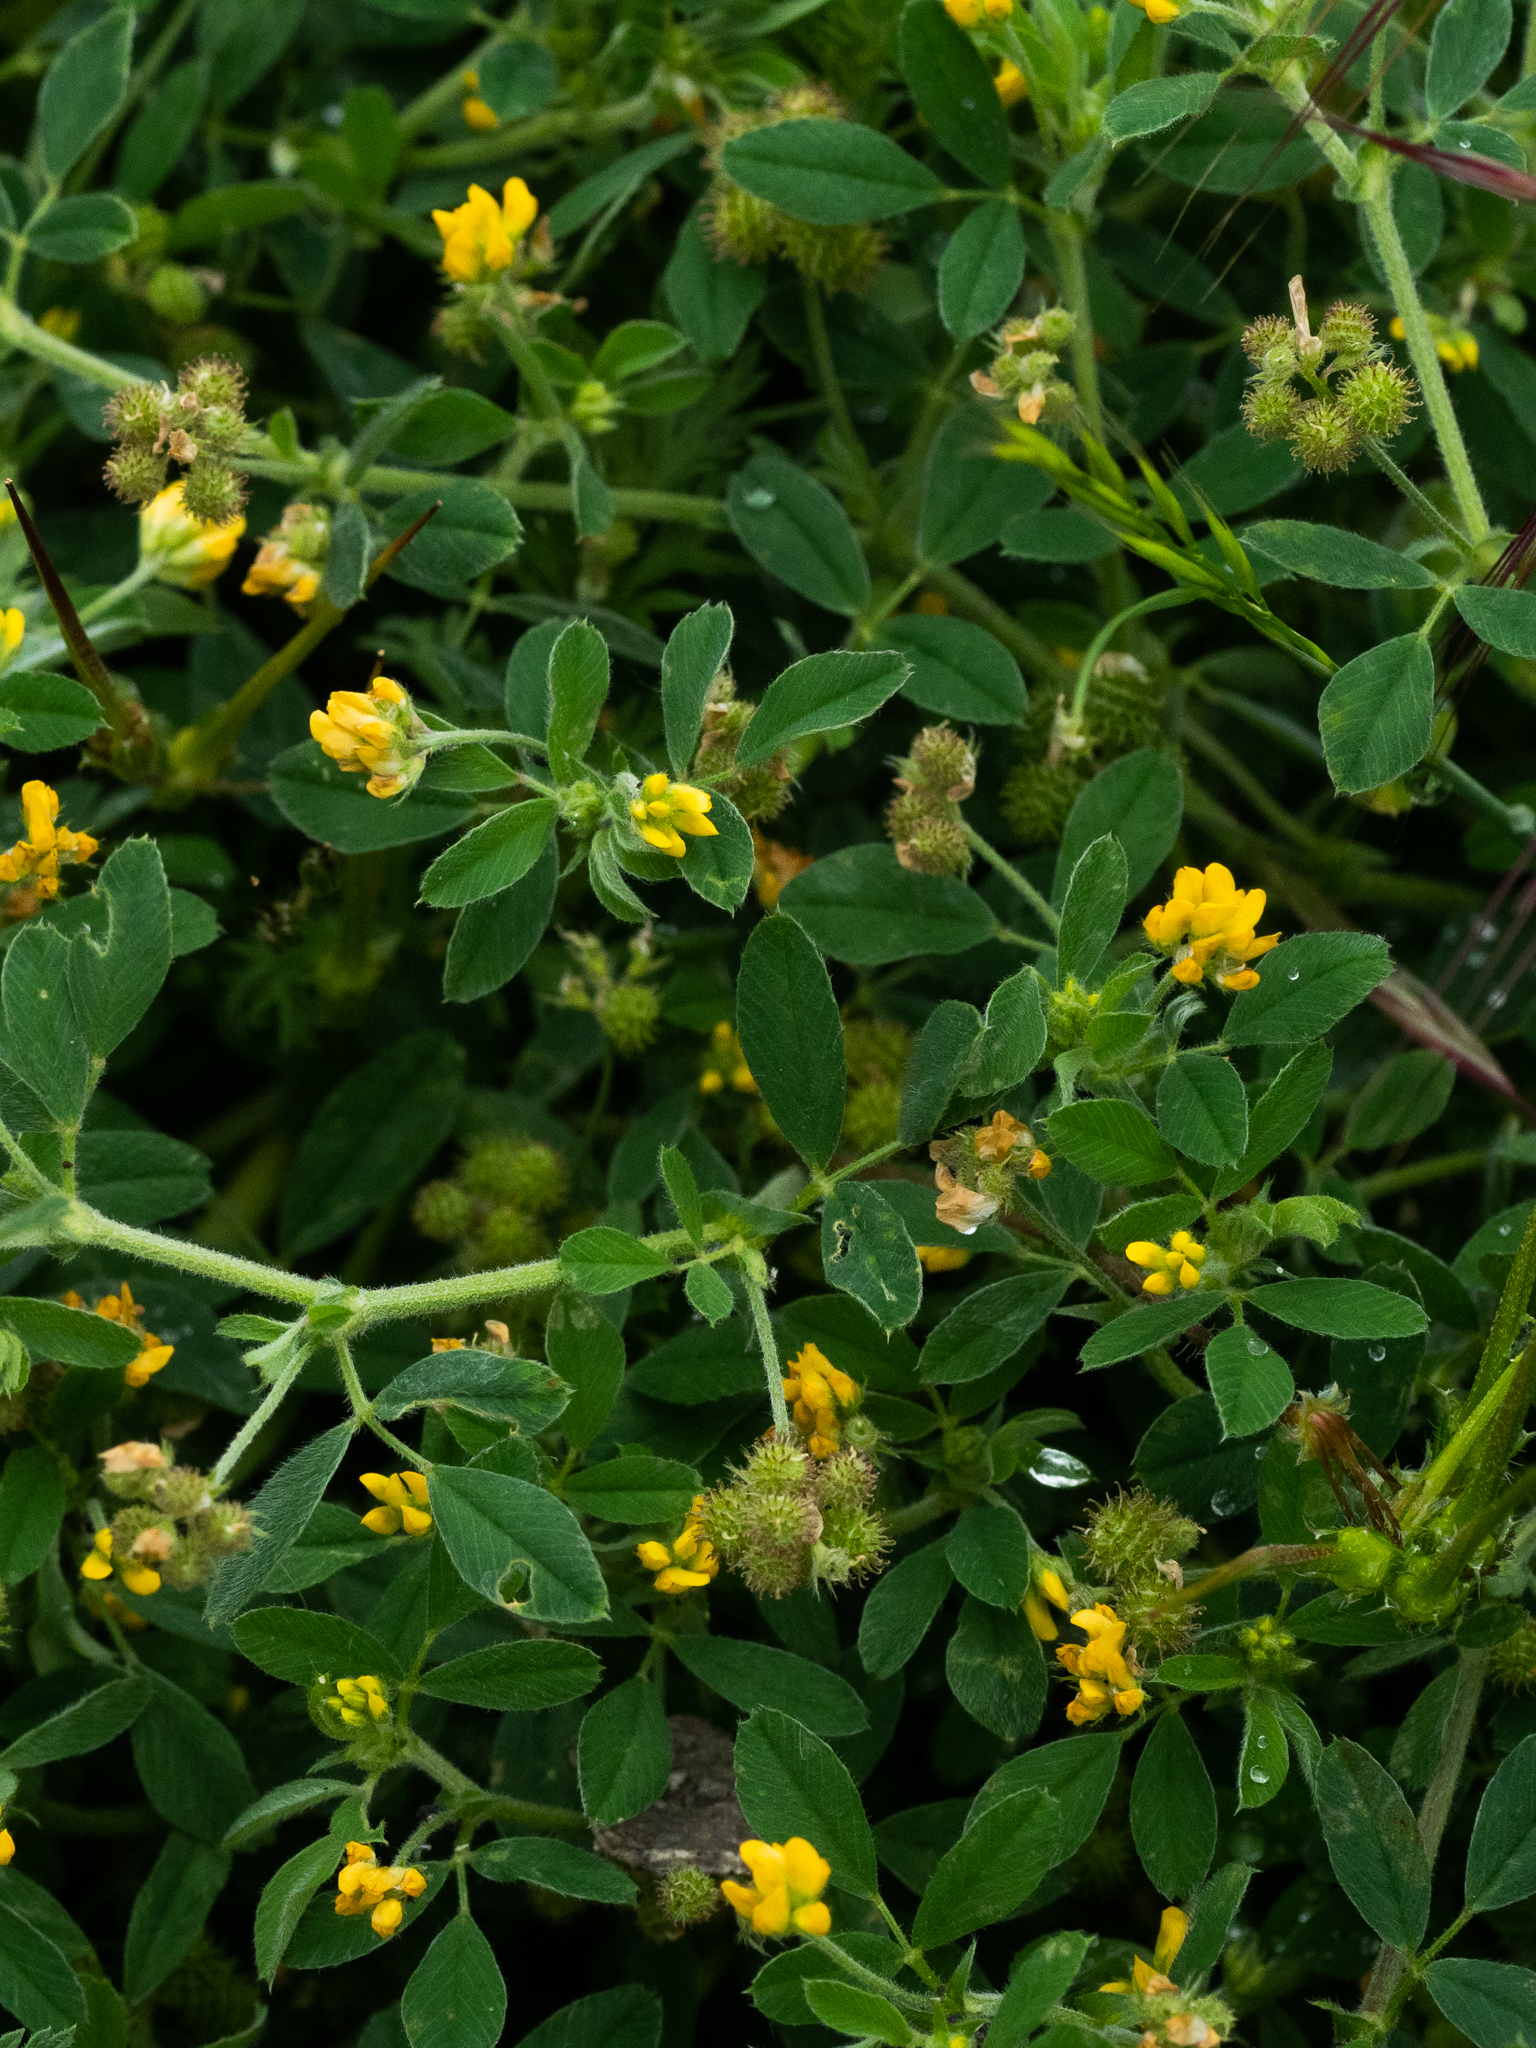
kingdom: Plantae
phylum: Tracheophyta
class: Magnoliopsida
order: Fabales
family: Fabaceae
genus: Medicago
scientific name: Medicago minima
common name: Little bur-clover
